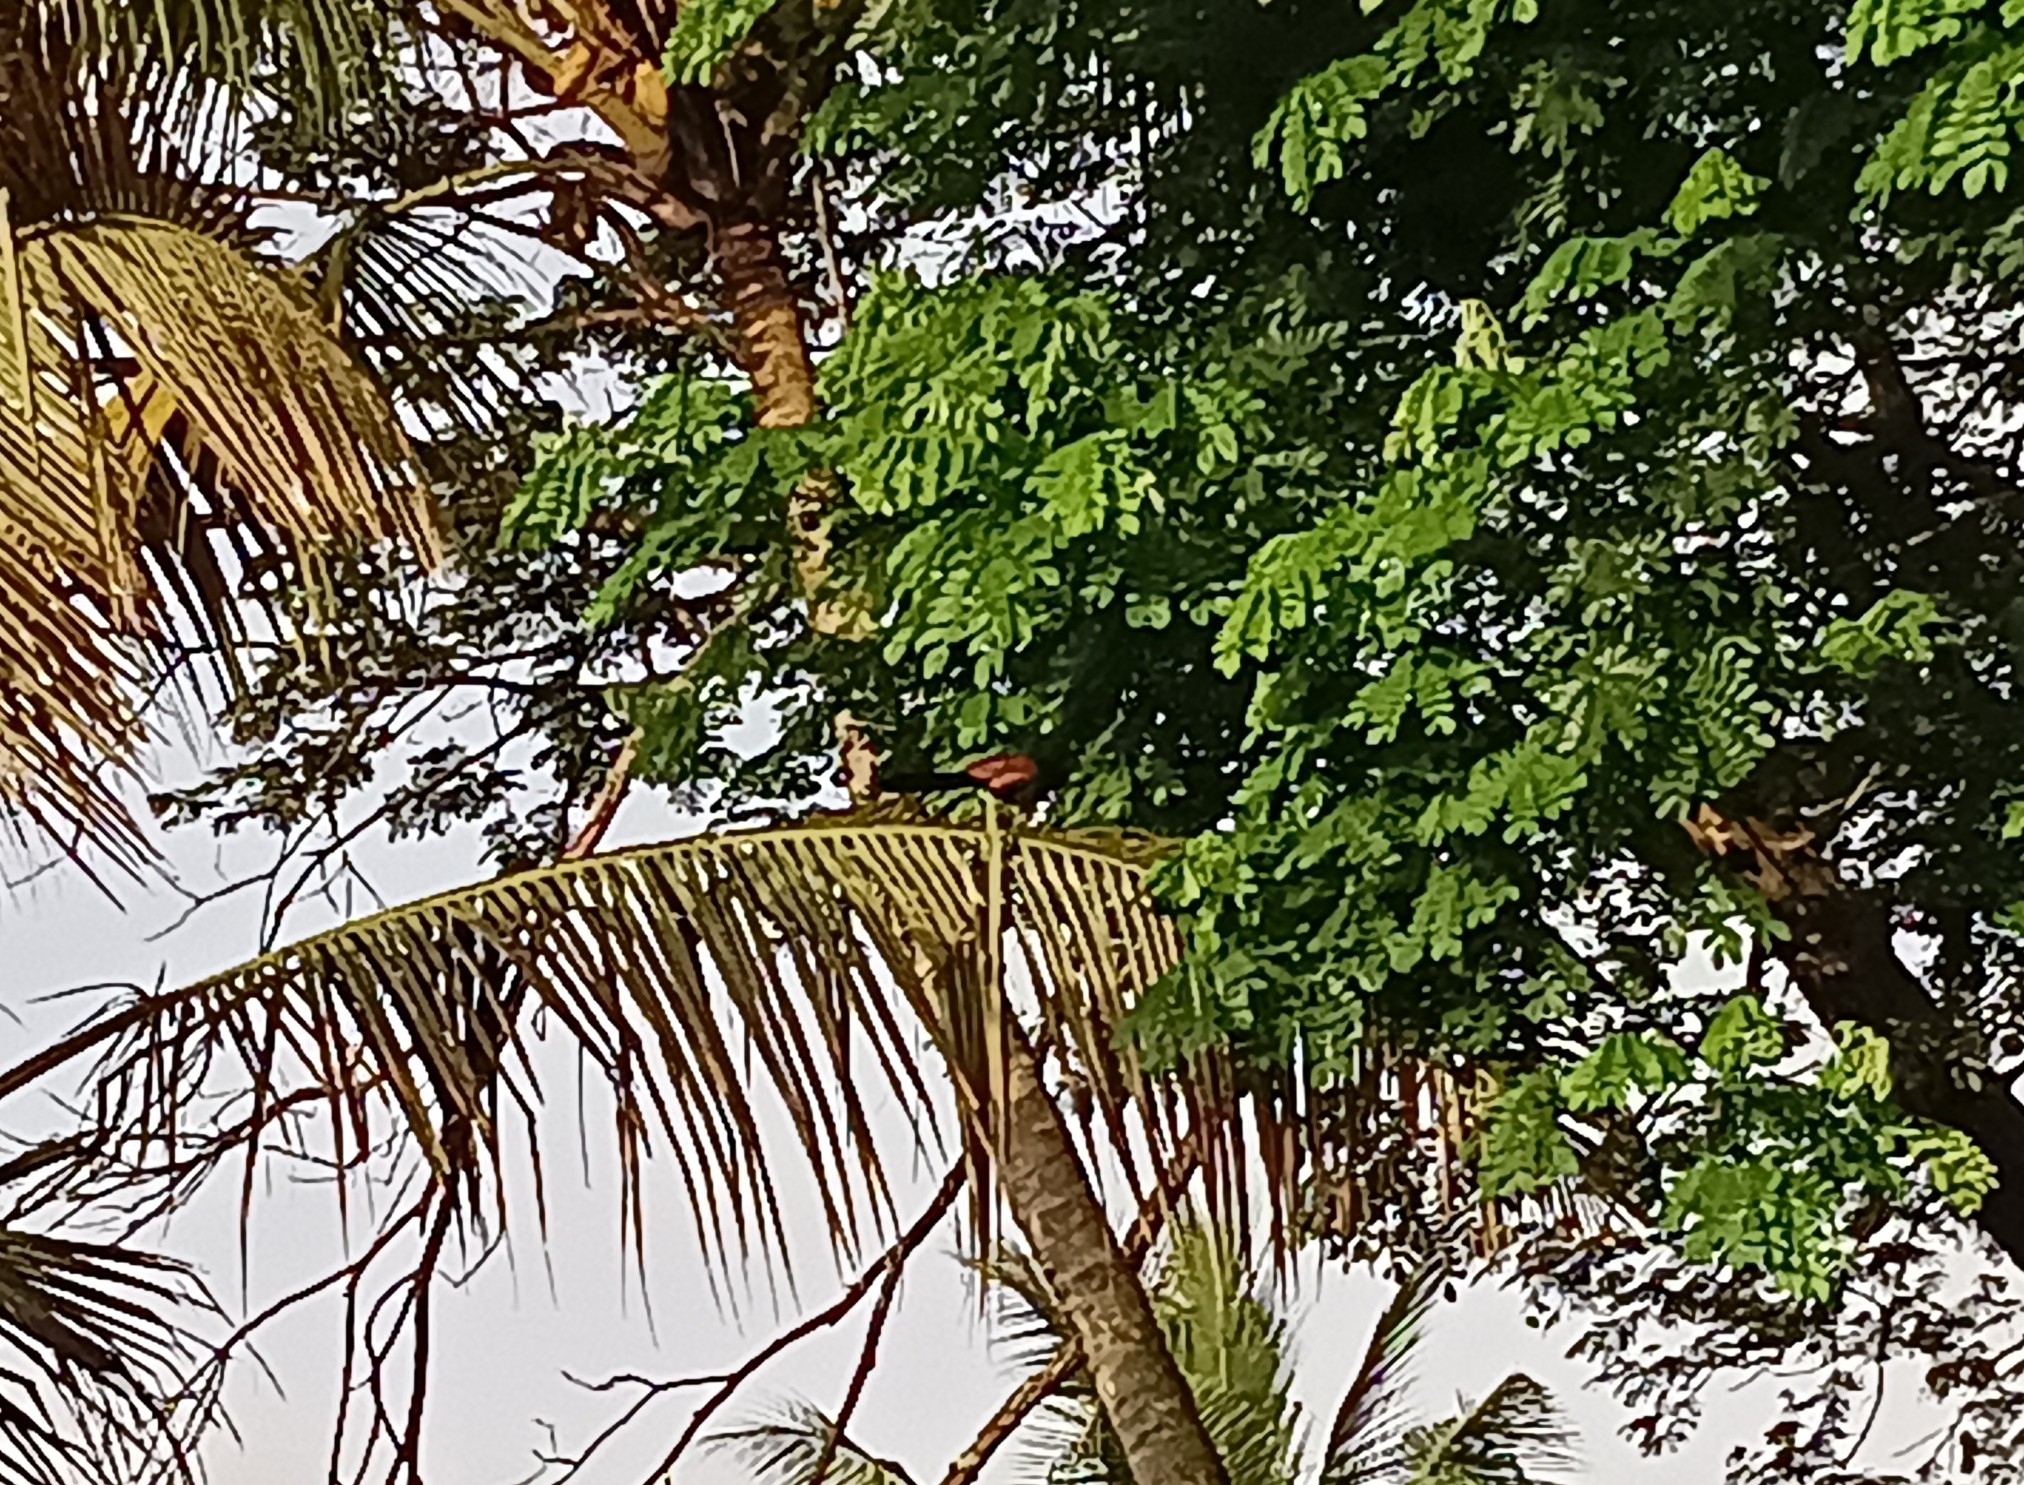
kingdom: Animalia
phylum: Chordata
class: Aves
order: Cuculiformes
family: Cuculidae
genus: Centropus
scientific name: Centropus sinensis
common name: Greater coucal
